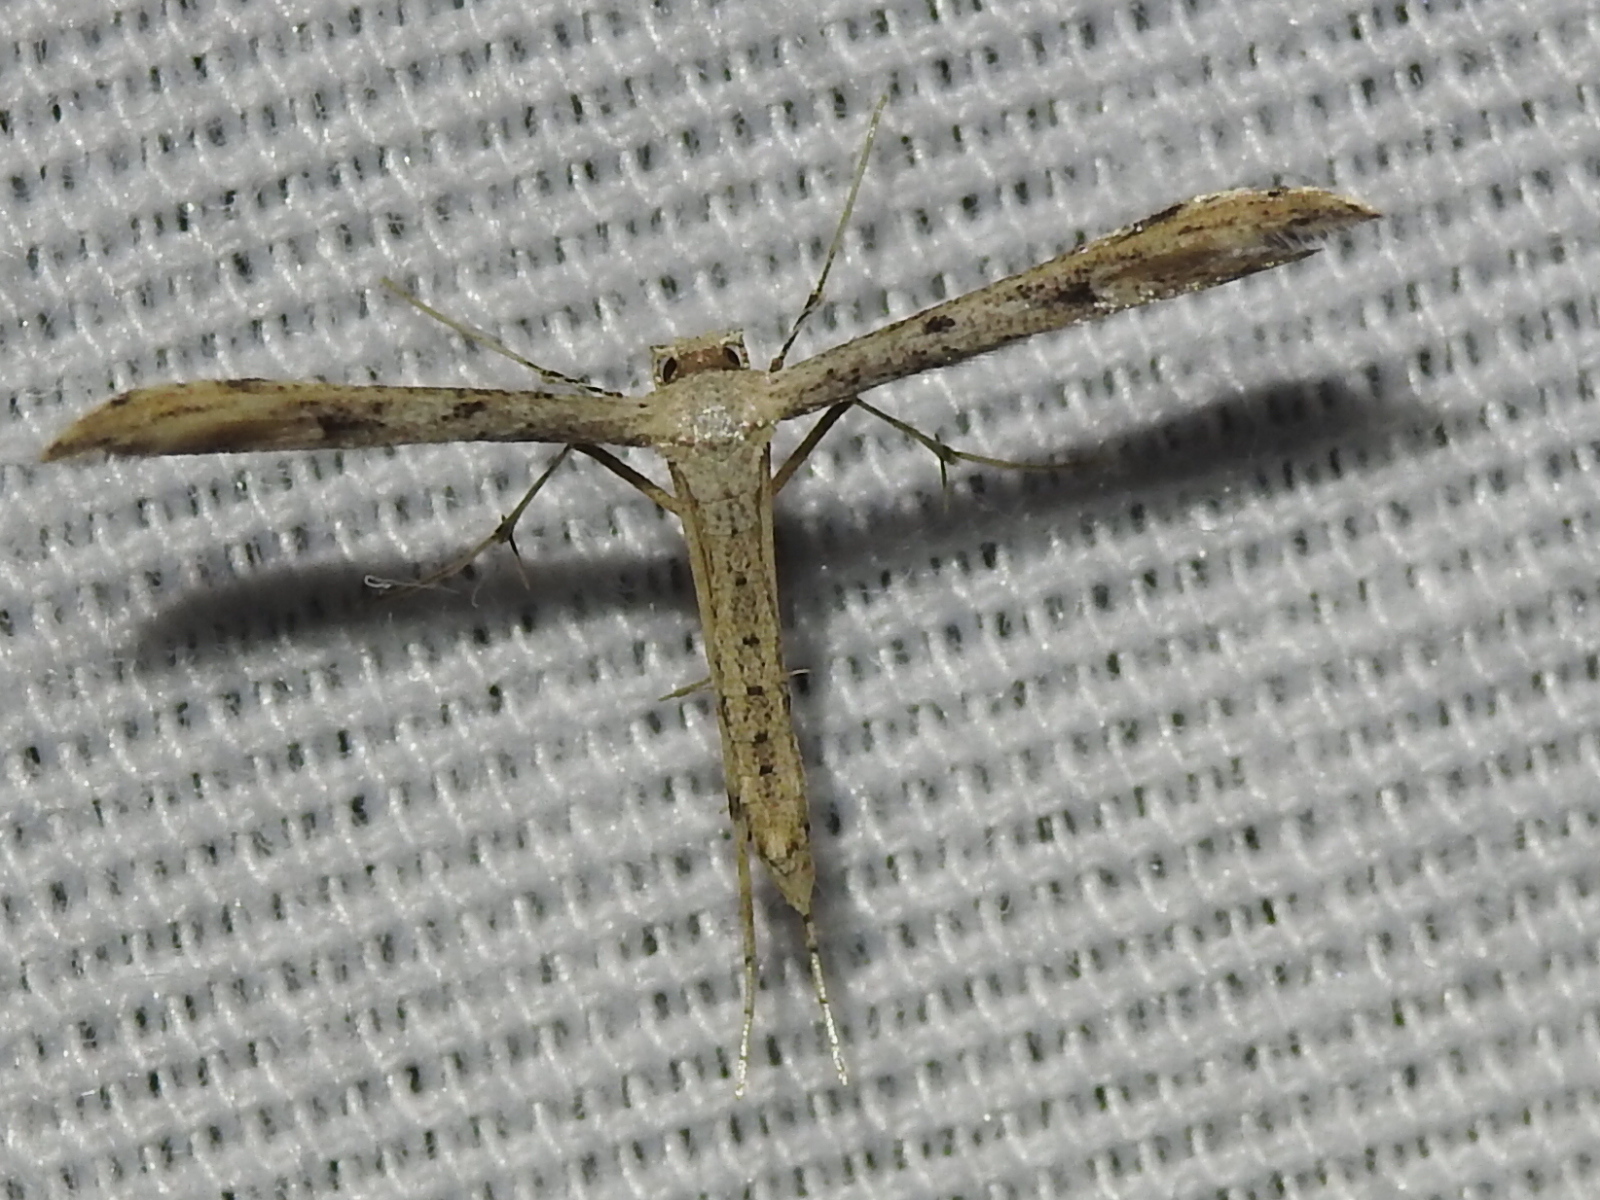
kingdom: Animalia
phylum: Arthropoda
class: Insecta
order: Lepidoptera
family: Pterophoridae
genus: Adaina
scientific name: Adaina ambrosiae
